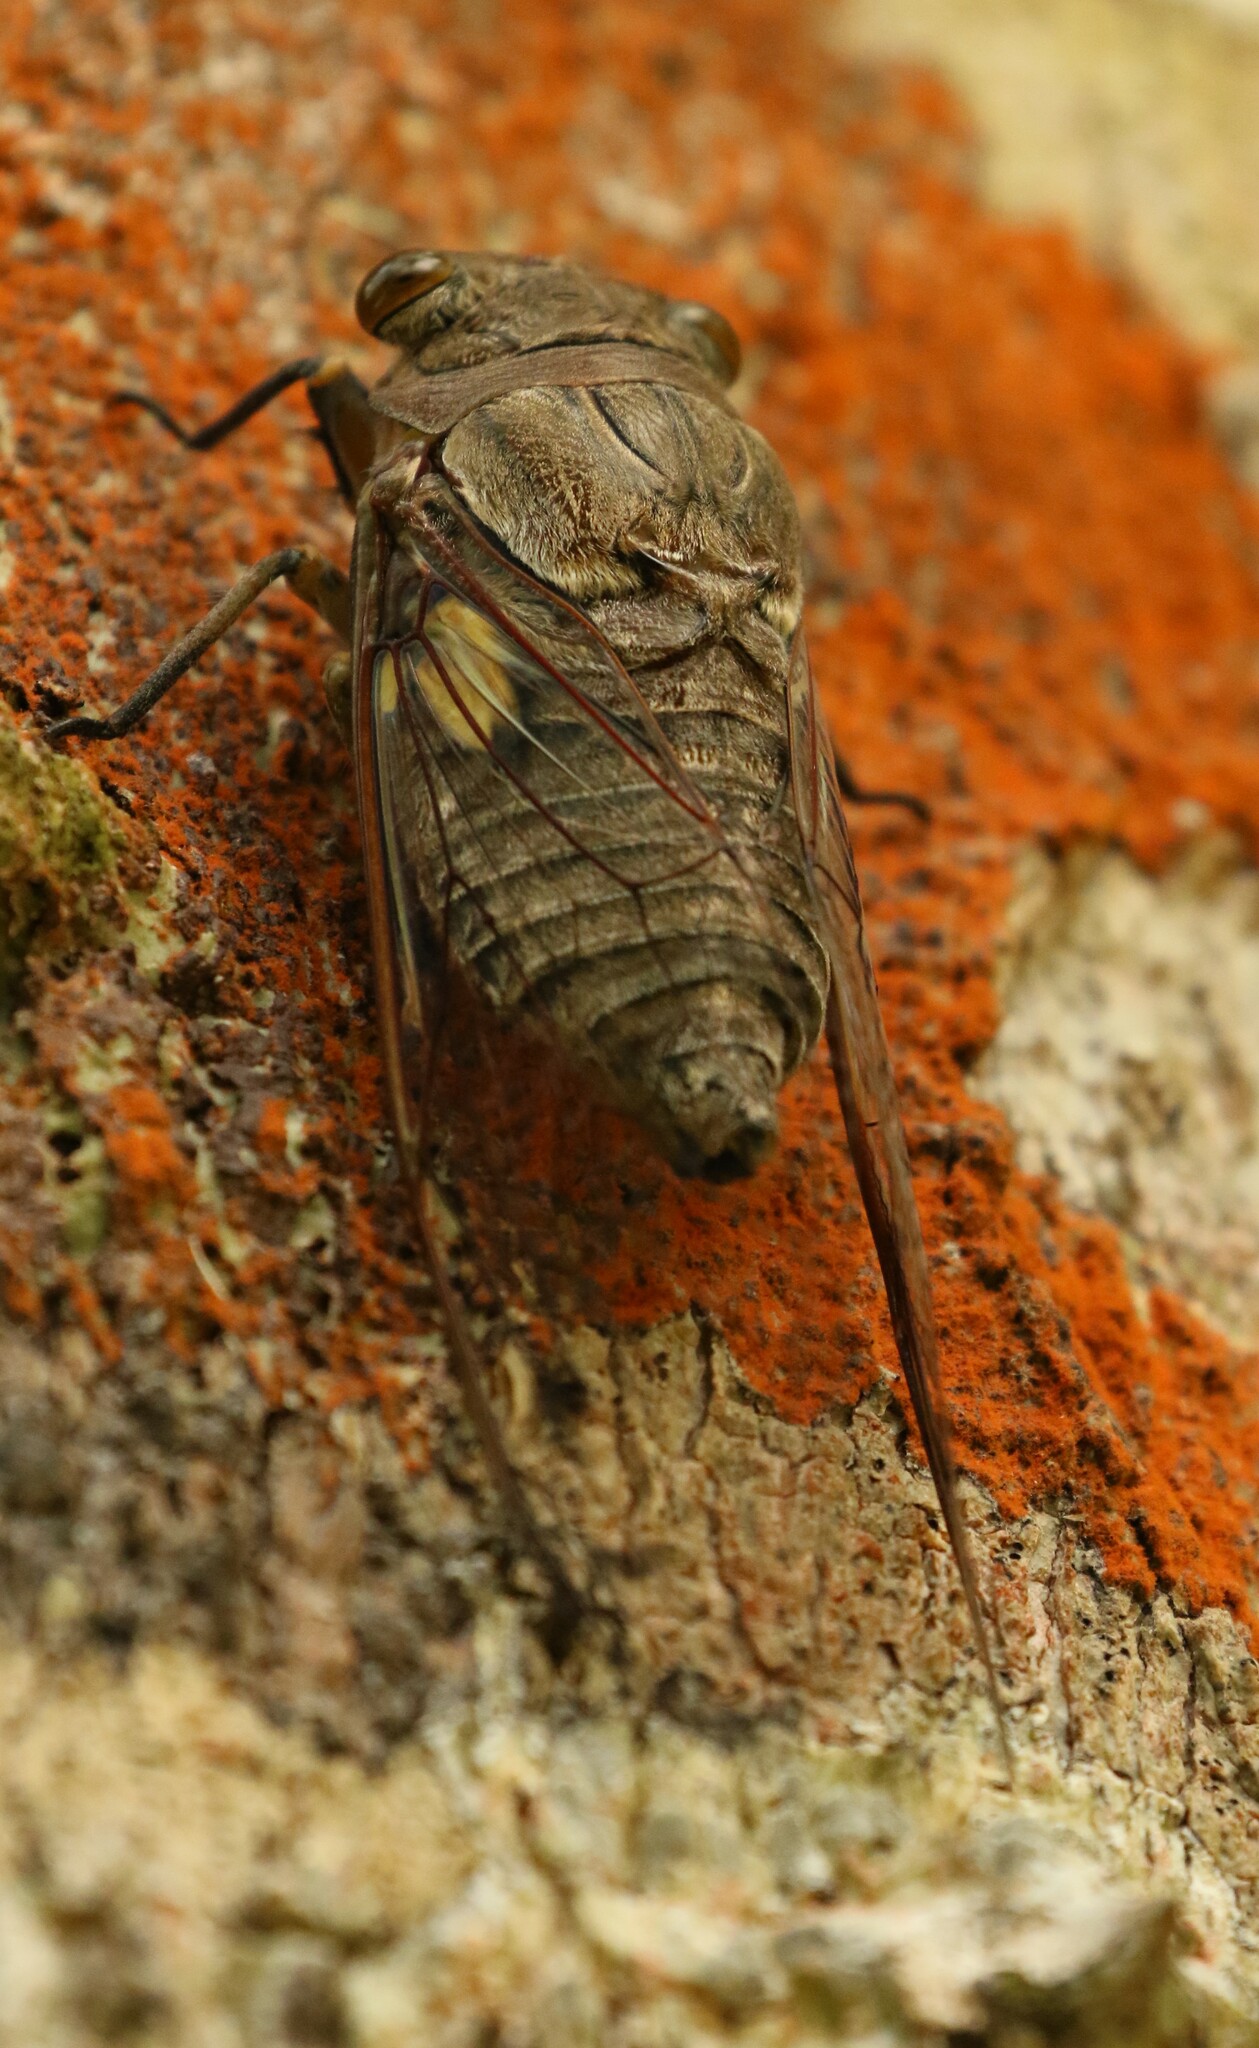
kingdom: Animalia
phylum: Arthropoda
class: Insecta
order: Hemiptera
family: Cicadidae
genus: Quesada
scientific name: Quesada gigas
